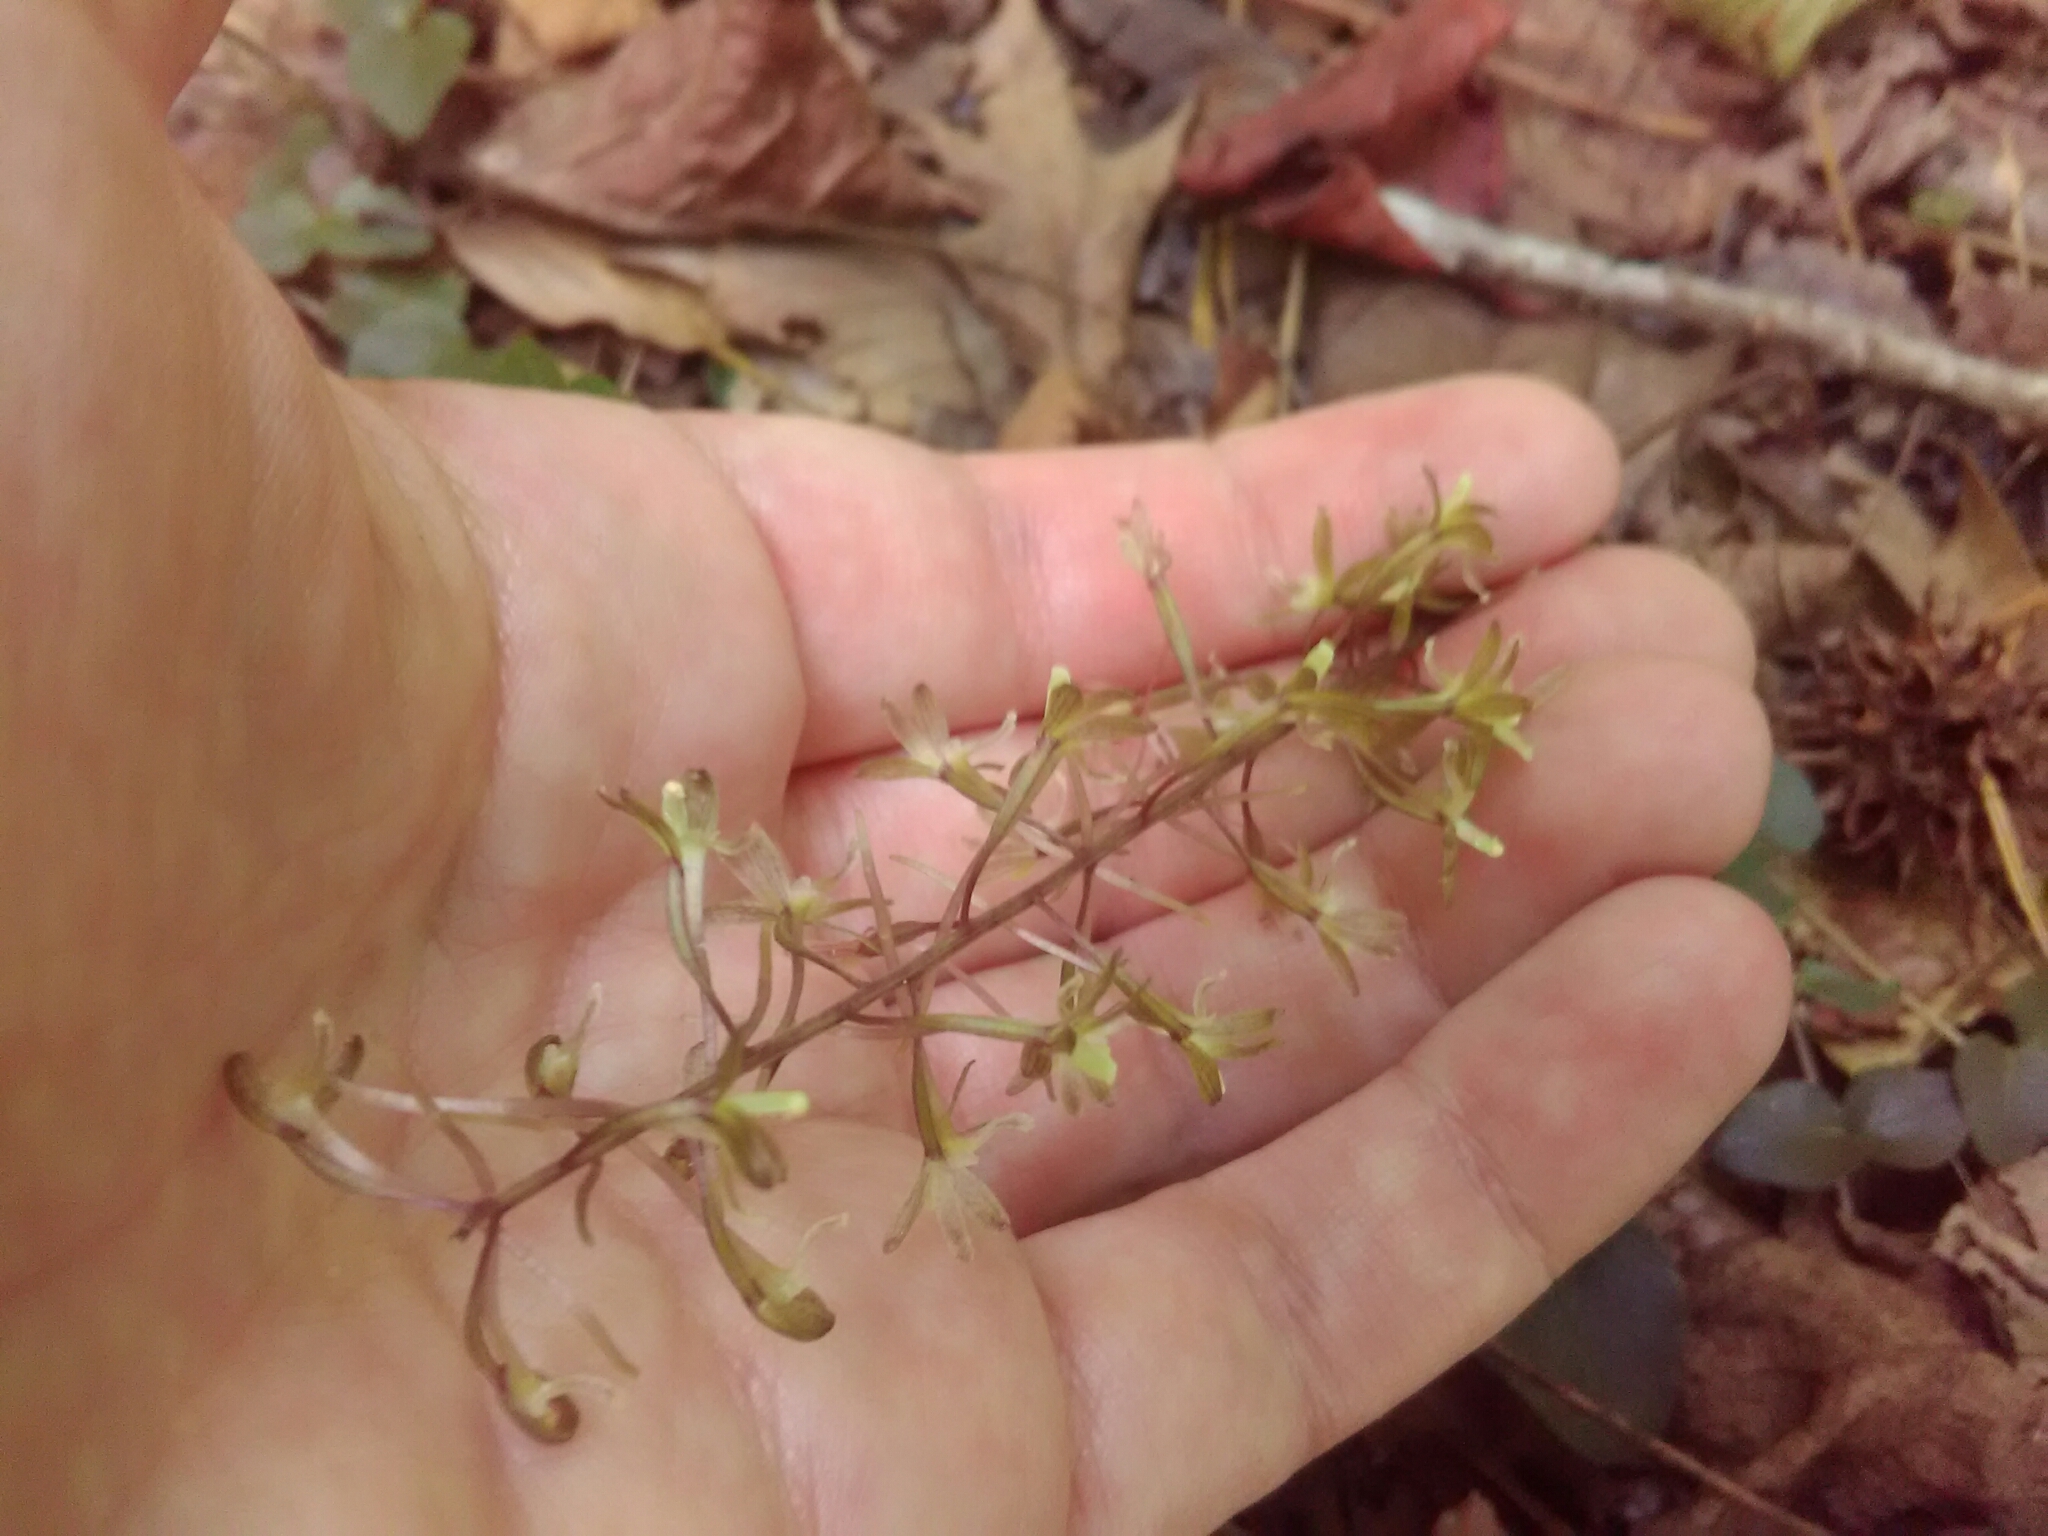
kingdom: Plantae
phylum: Tracheophyta
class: Liliopsida
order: Asparagales
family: Orchidaceae
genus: Tipularia
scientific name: Tipularia discolor
